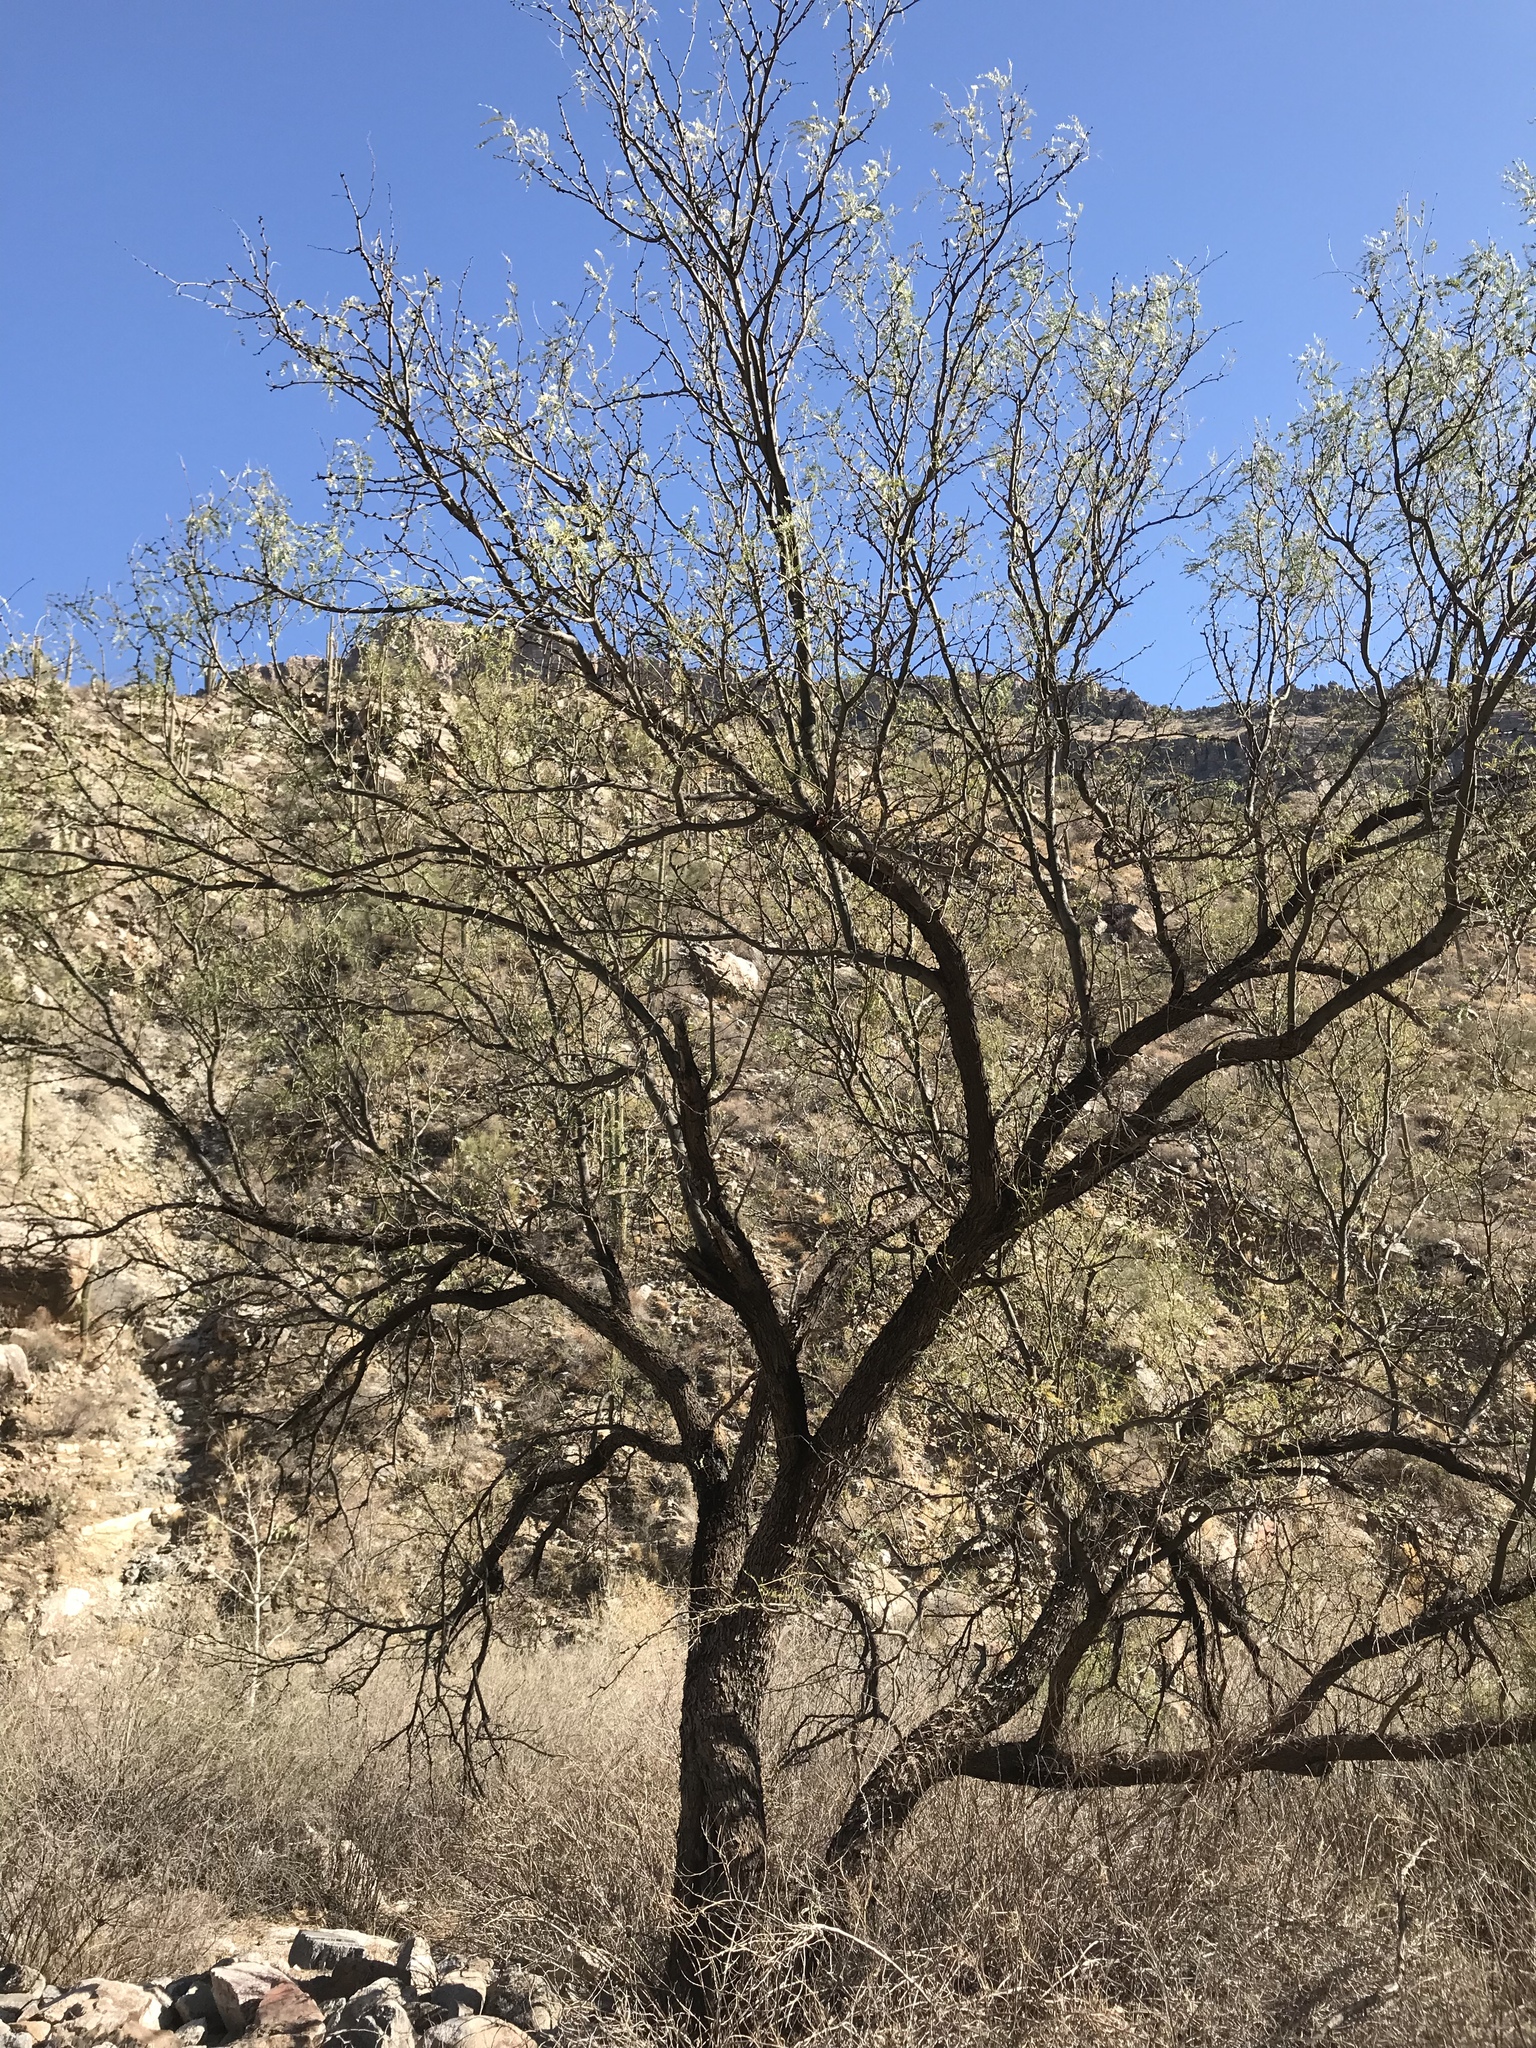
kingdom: Plantae
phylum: Tracheophyta
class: Magnoliopsida
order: Fabales
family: Fabaceae
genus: Prosopis
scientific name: Prosopis velutina
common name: Velvet mesquite
